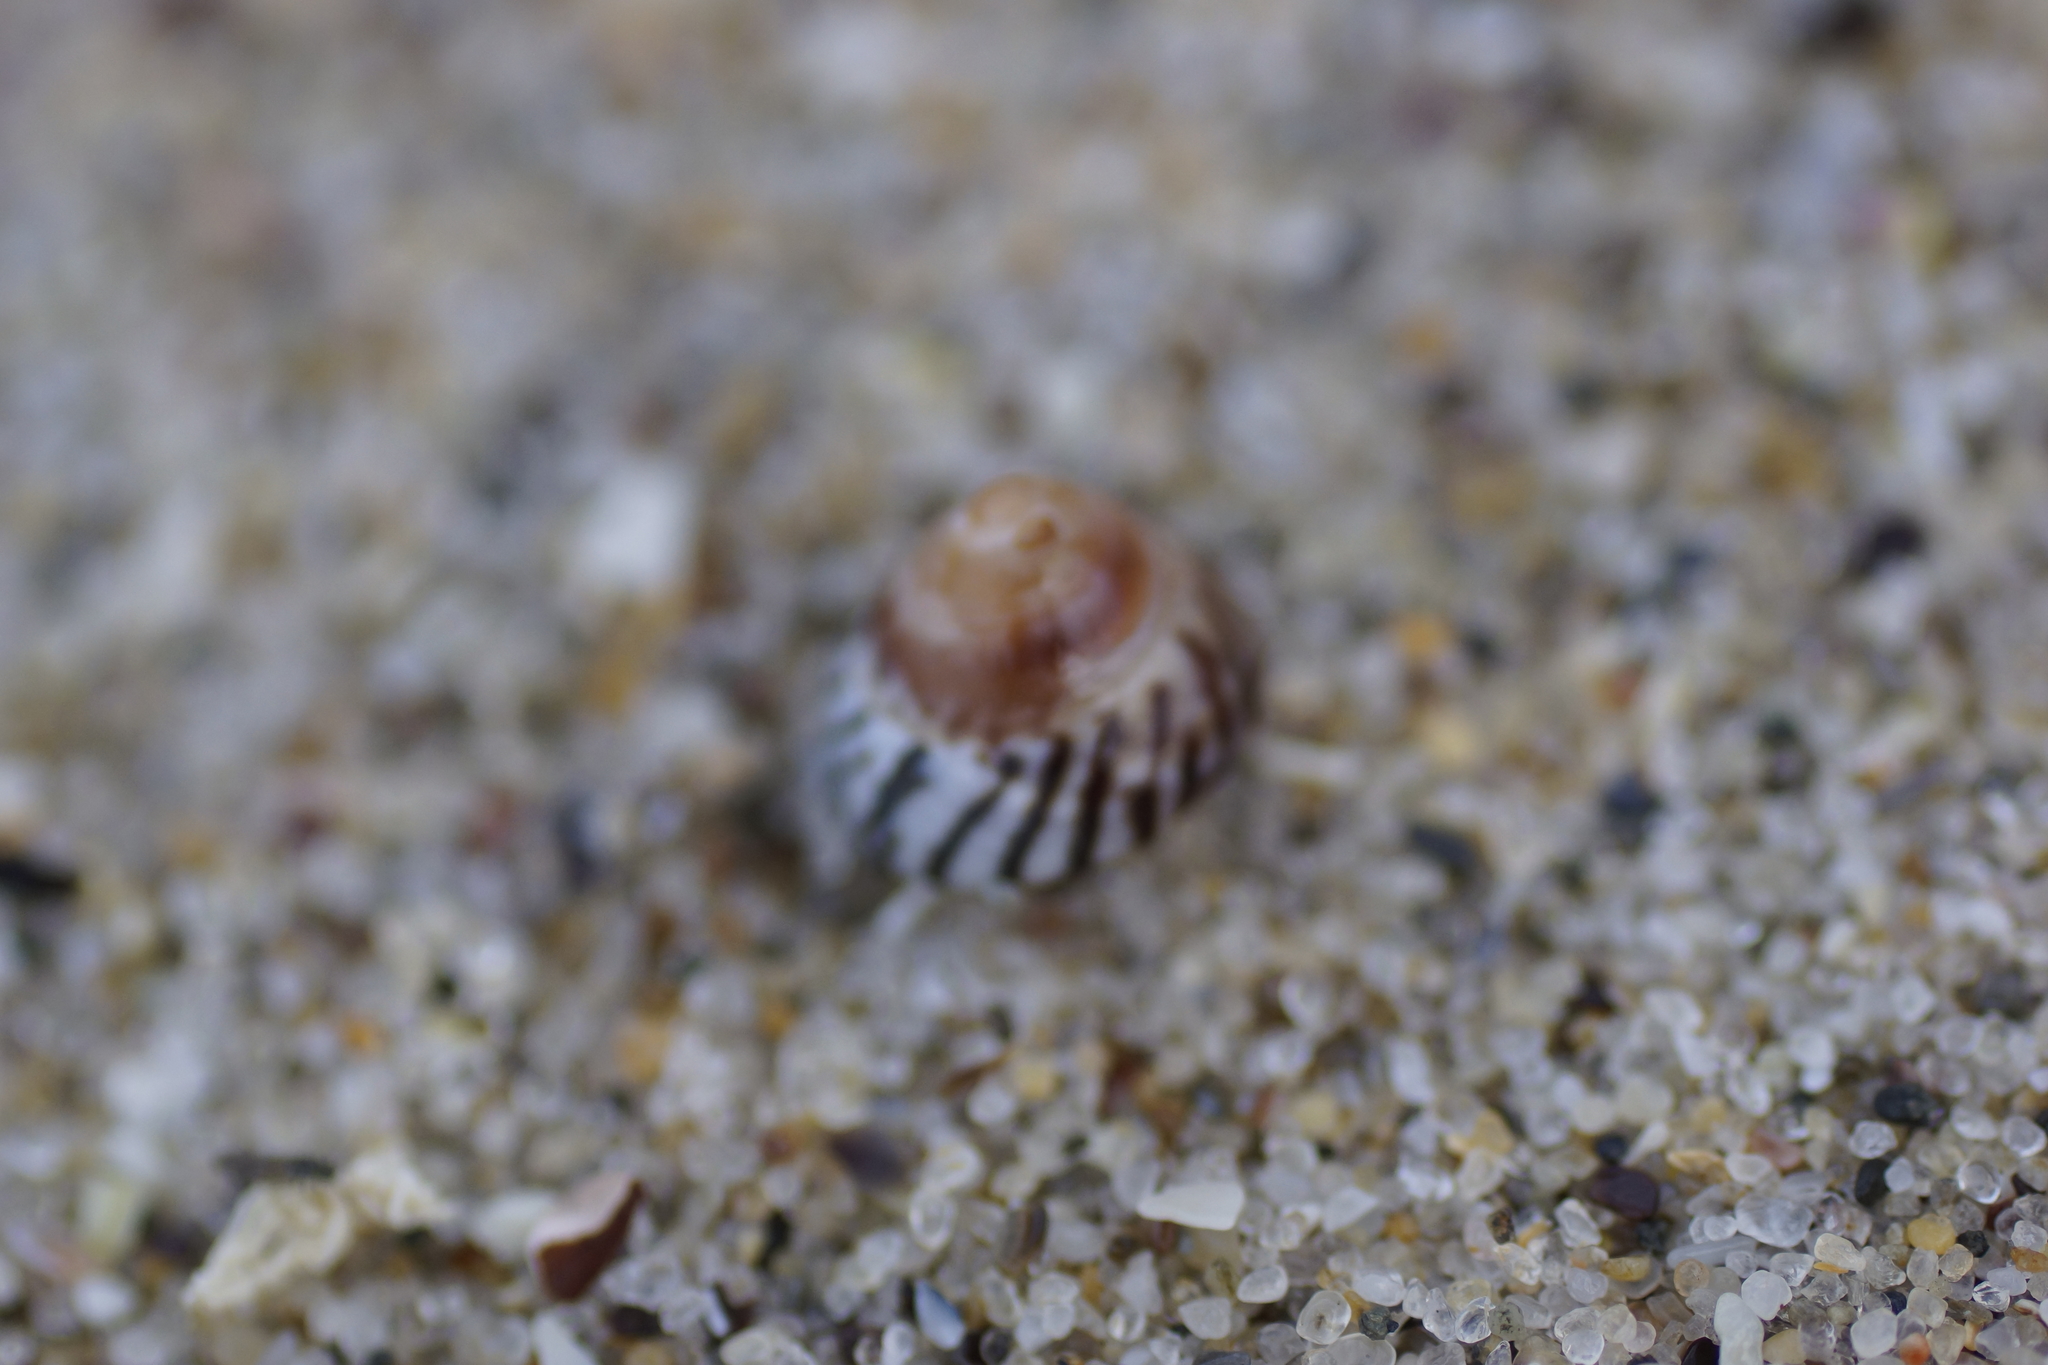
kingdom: Animalia
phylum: Mollusca
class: Gastropoda
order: Littorinimorpha
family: Littorinidae
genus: Bembicium
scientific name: Bembicium nanum
